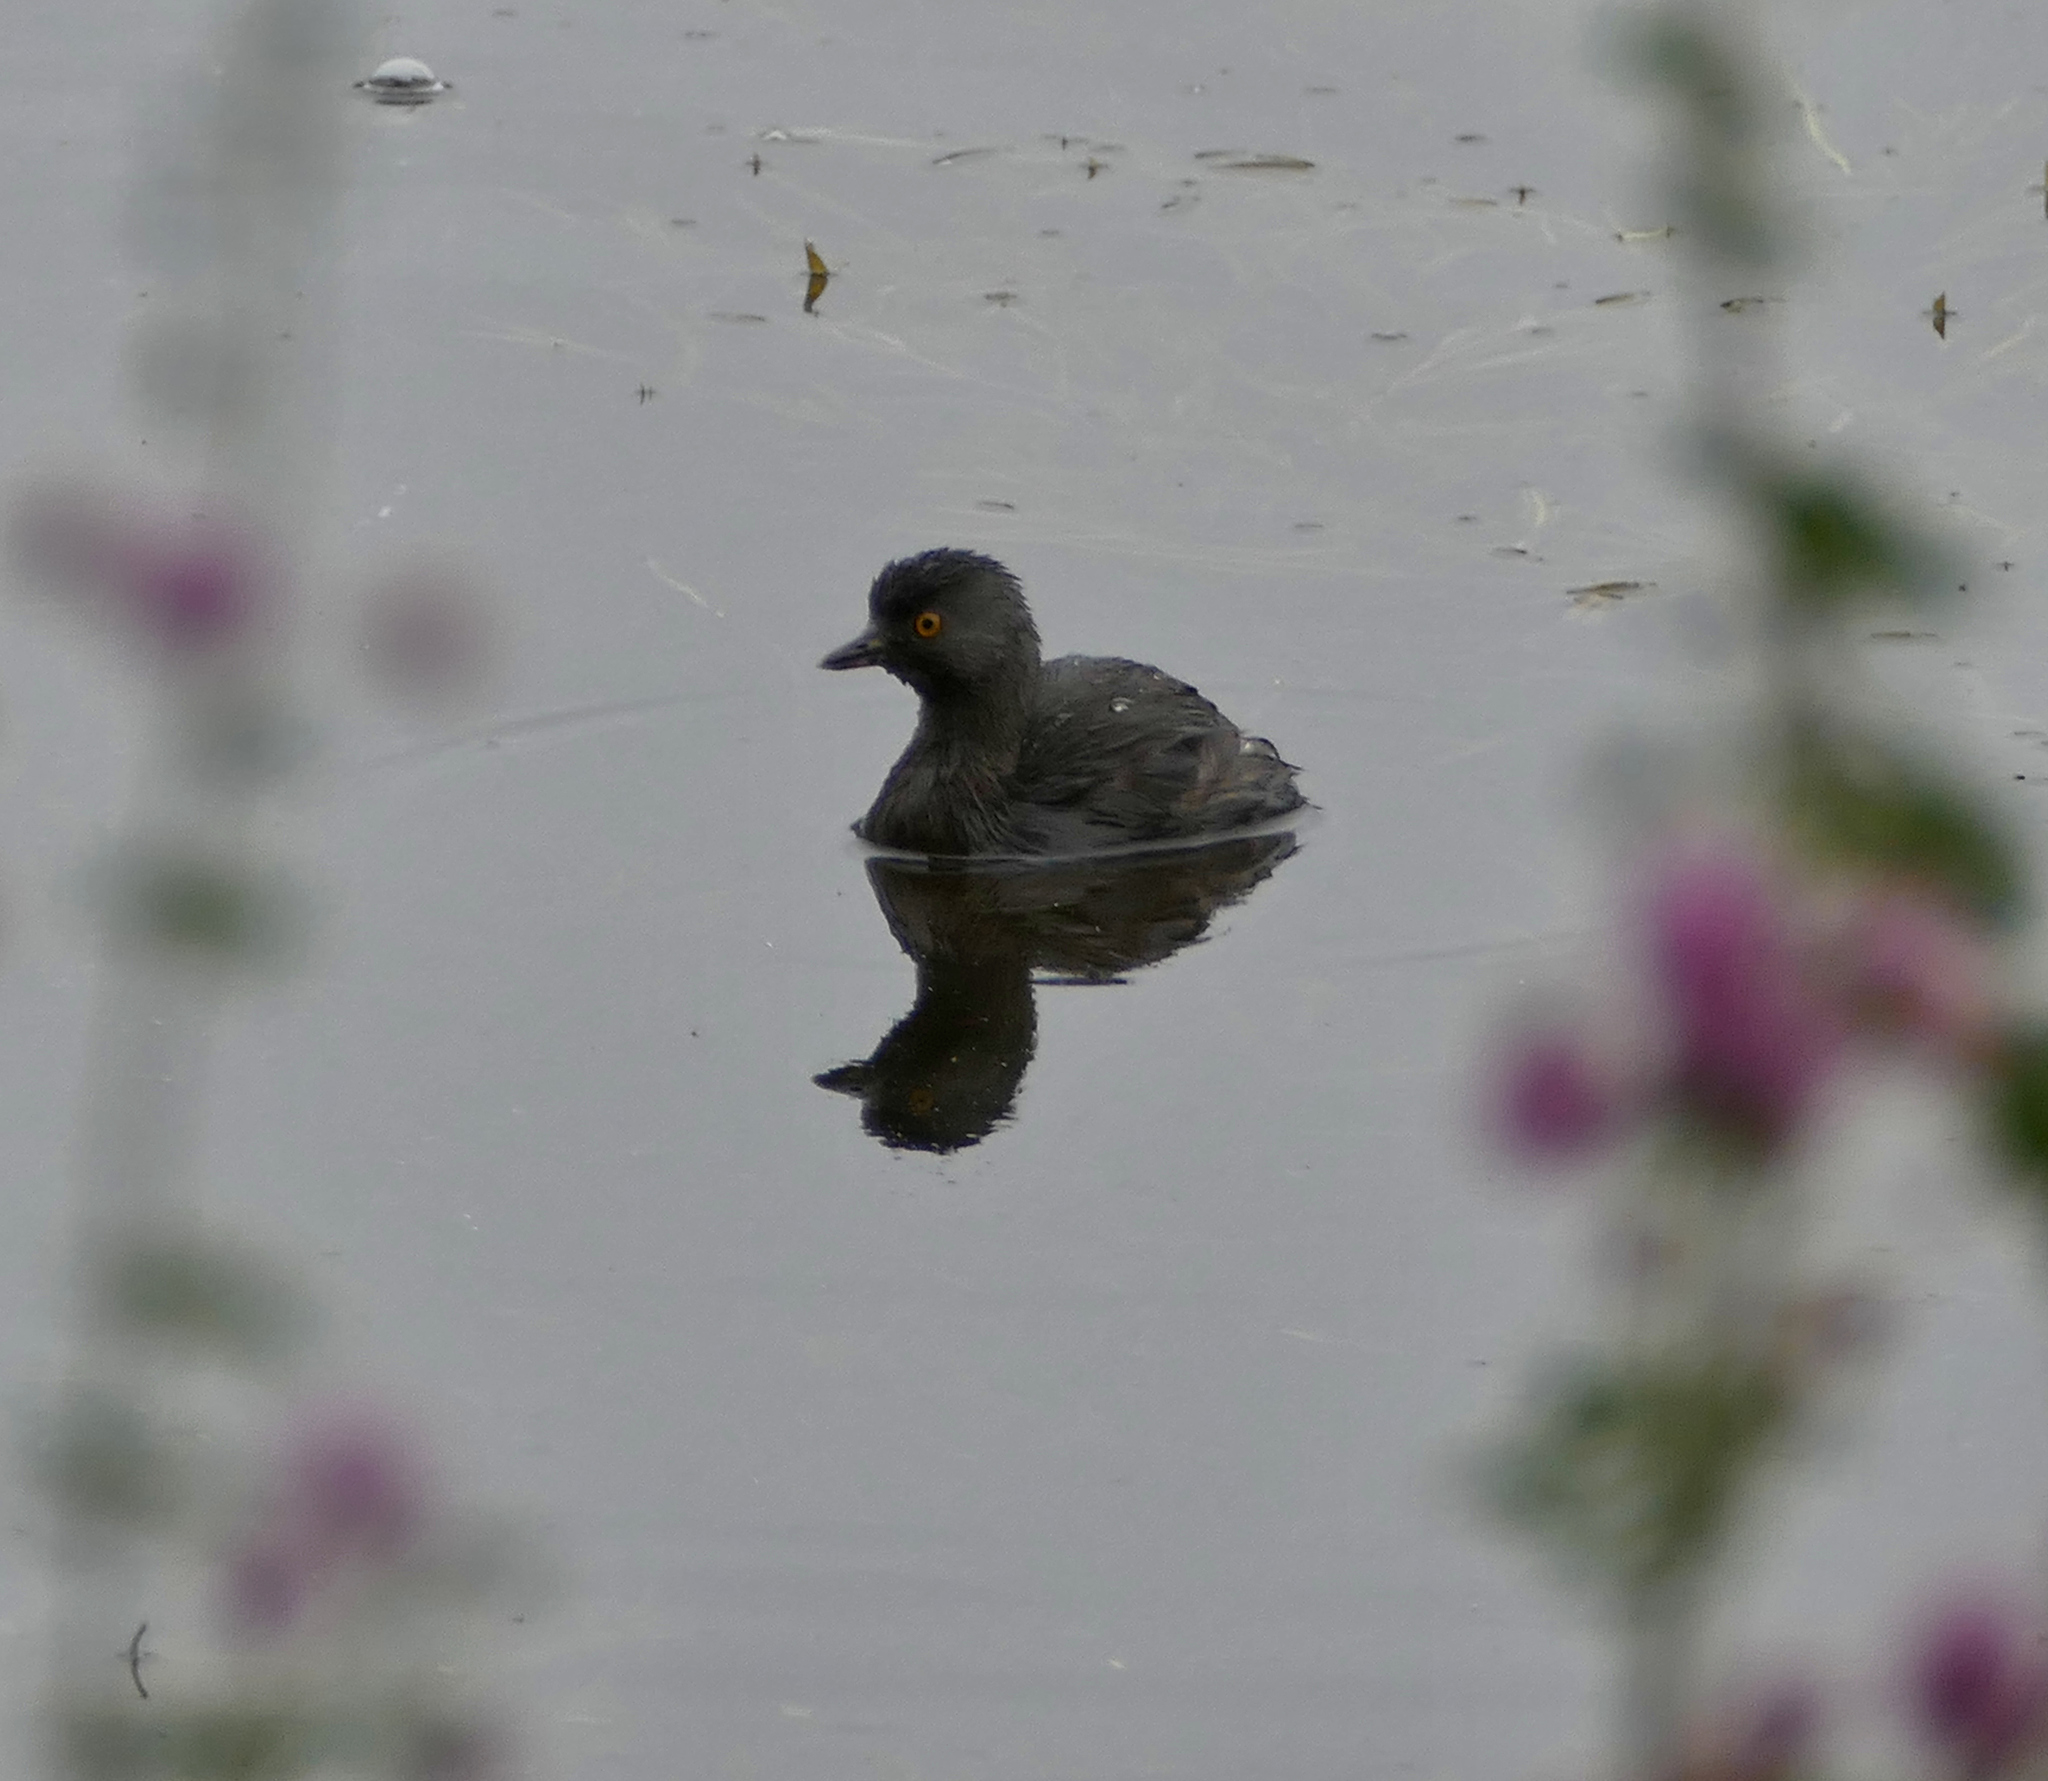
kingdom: Animalia
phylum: Chordata
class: Aves
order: Podicipediformes
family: Podicipedidae
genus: Tachybaptus
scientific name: Tachybaptus dominicus
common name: Least grebe
